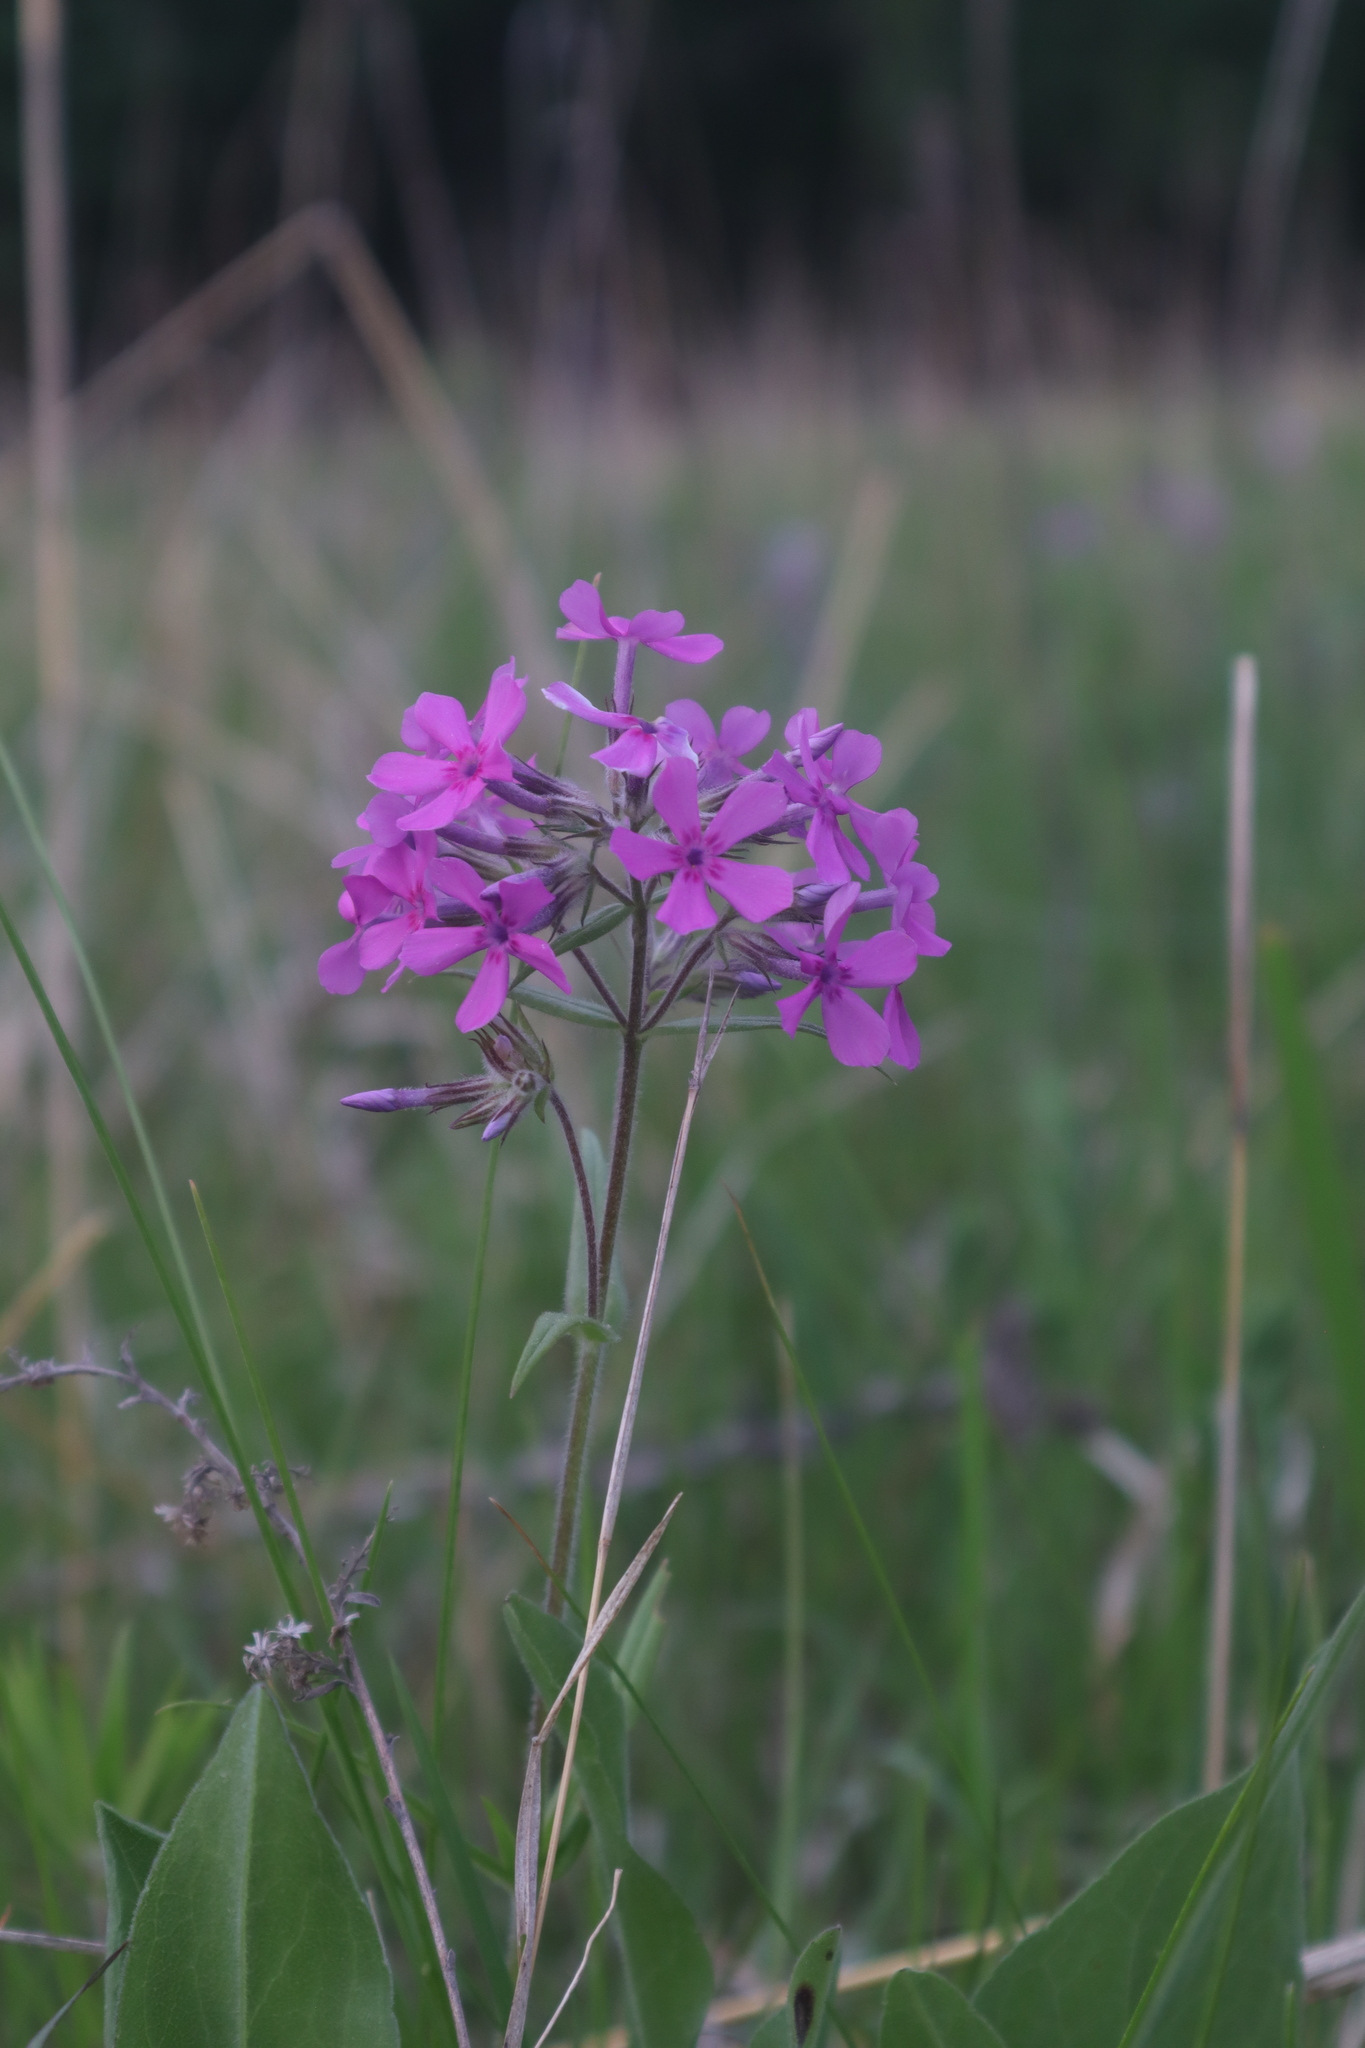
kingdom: Plantae
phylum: Tracheophyta
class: Magnoliopsida
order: Ericales
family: Polemoniaceae
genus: Phlox
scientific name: Phlox pilosa
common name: Prairie phlox
